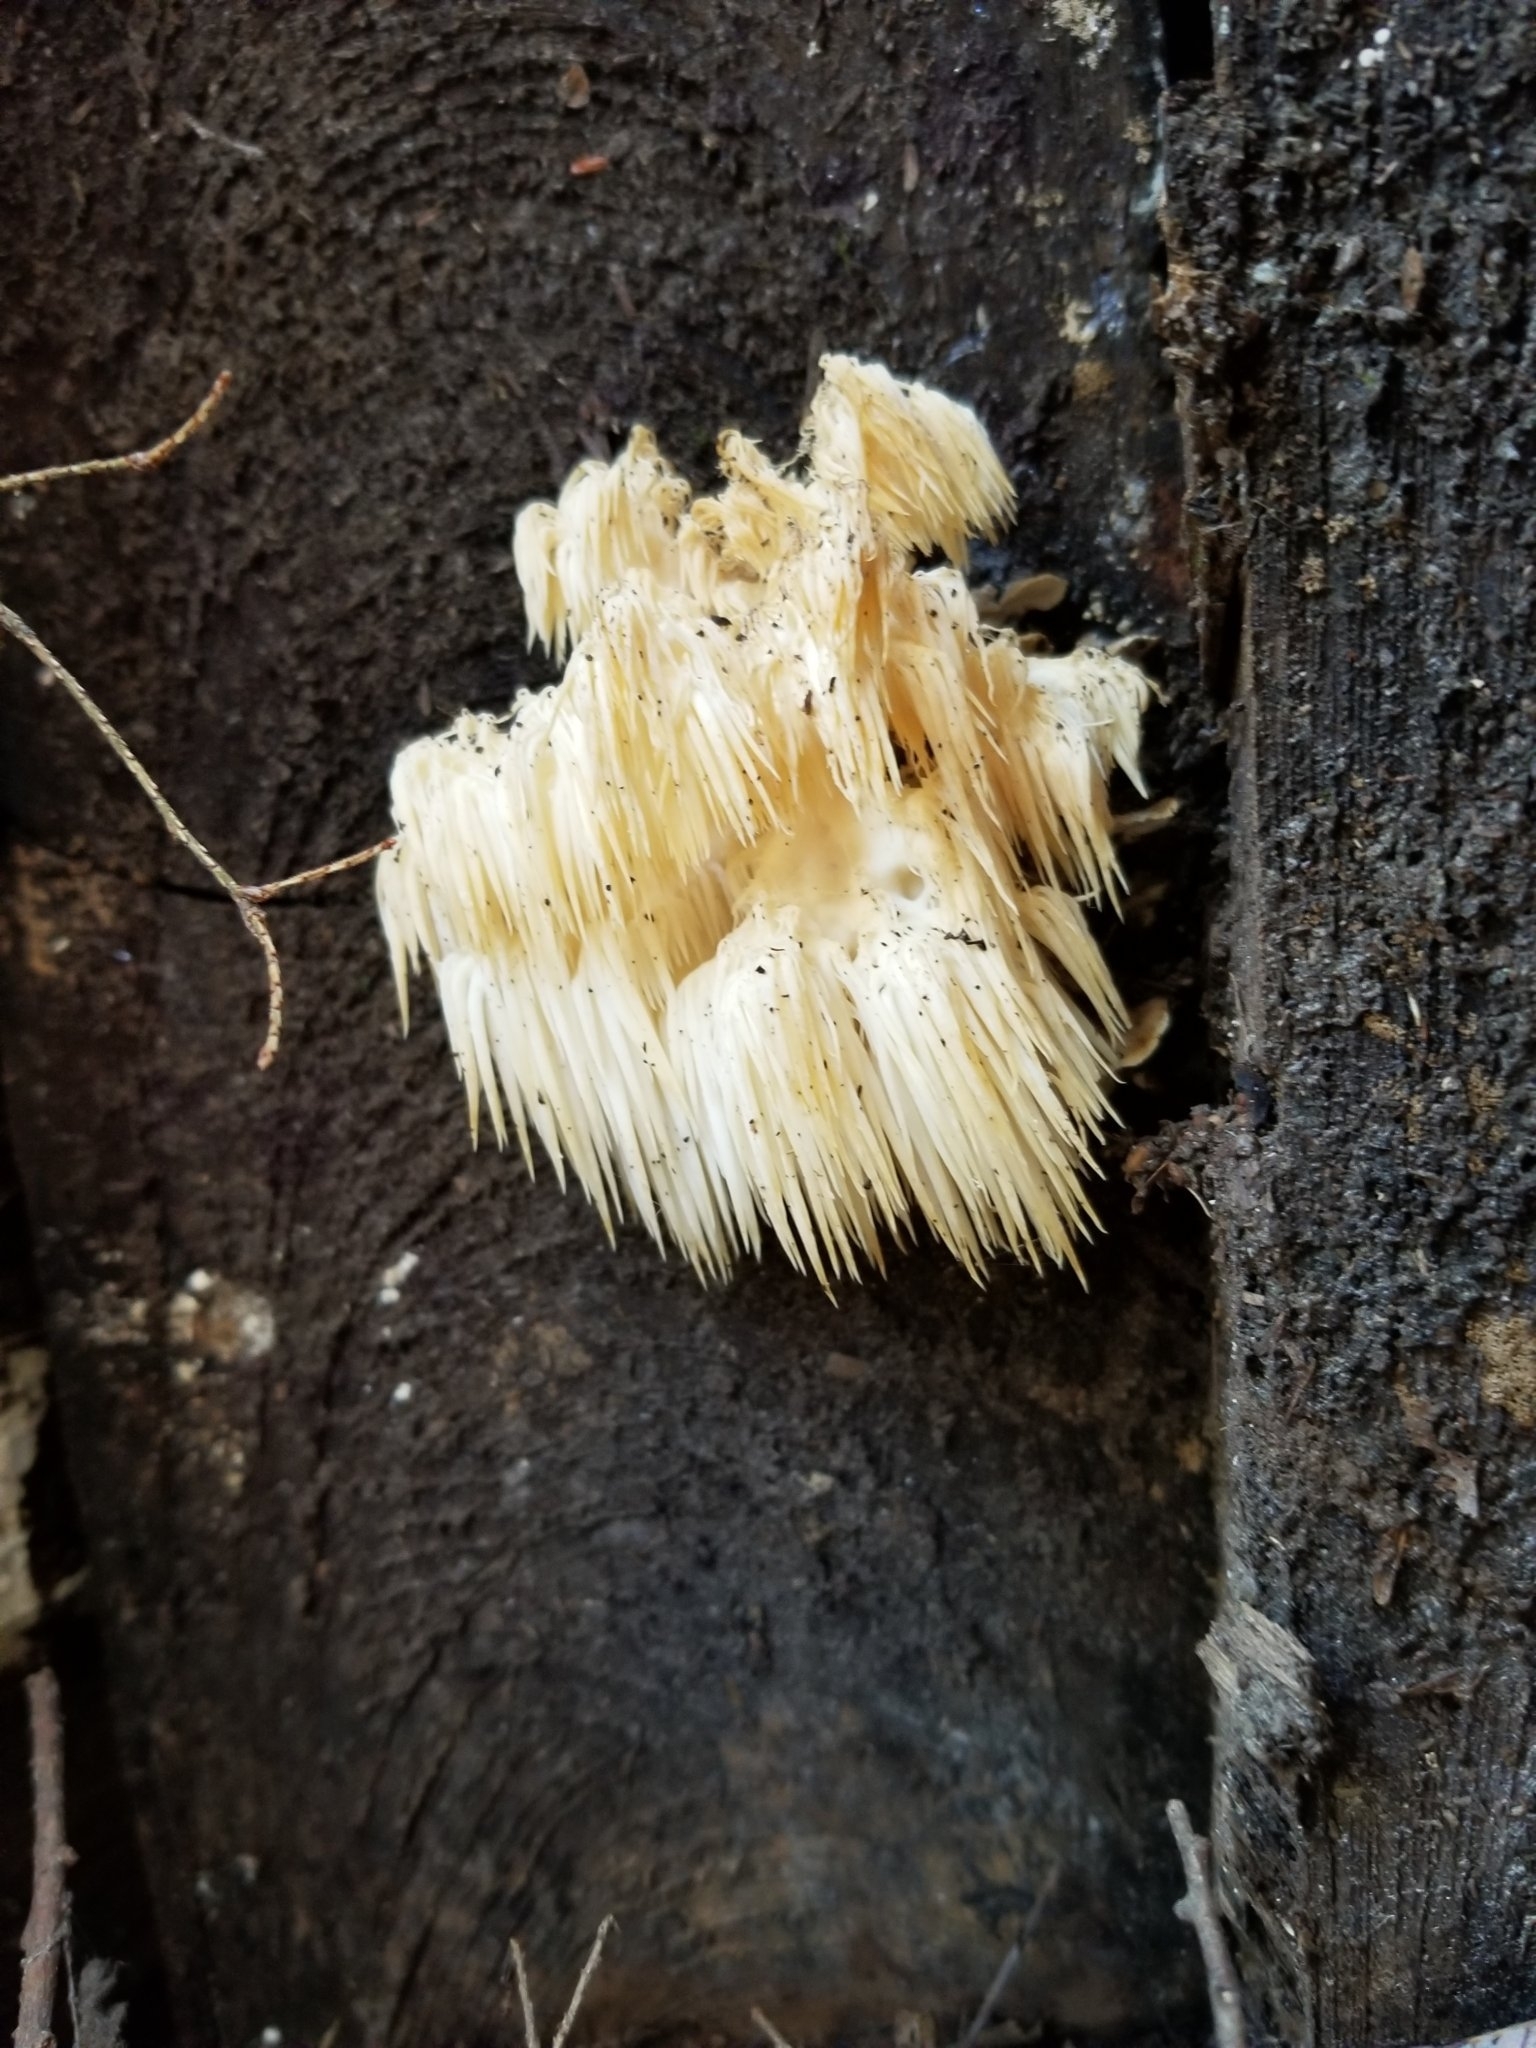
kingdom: Fungi
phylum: Basidiomycota
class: Agaricomycetes
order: Russulales
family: Hericiaceae
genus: Hericium
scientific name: Hericium americanum
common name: Bear's head tooth
